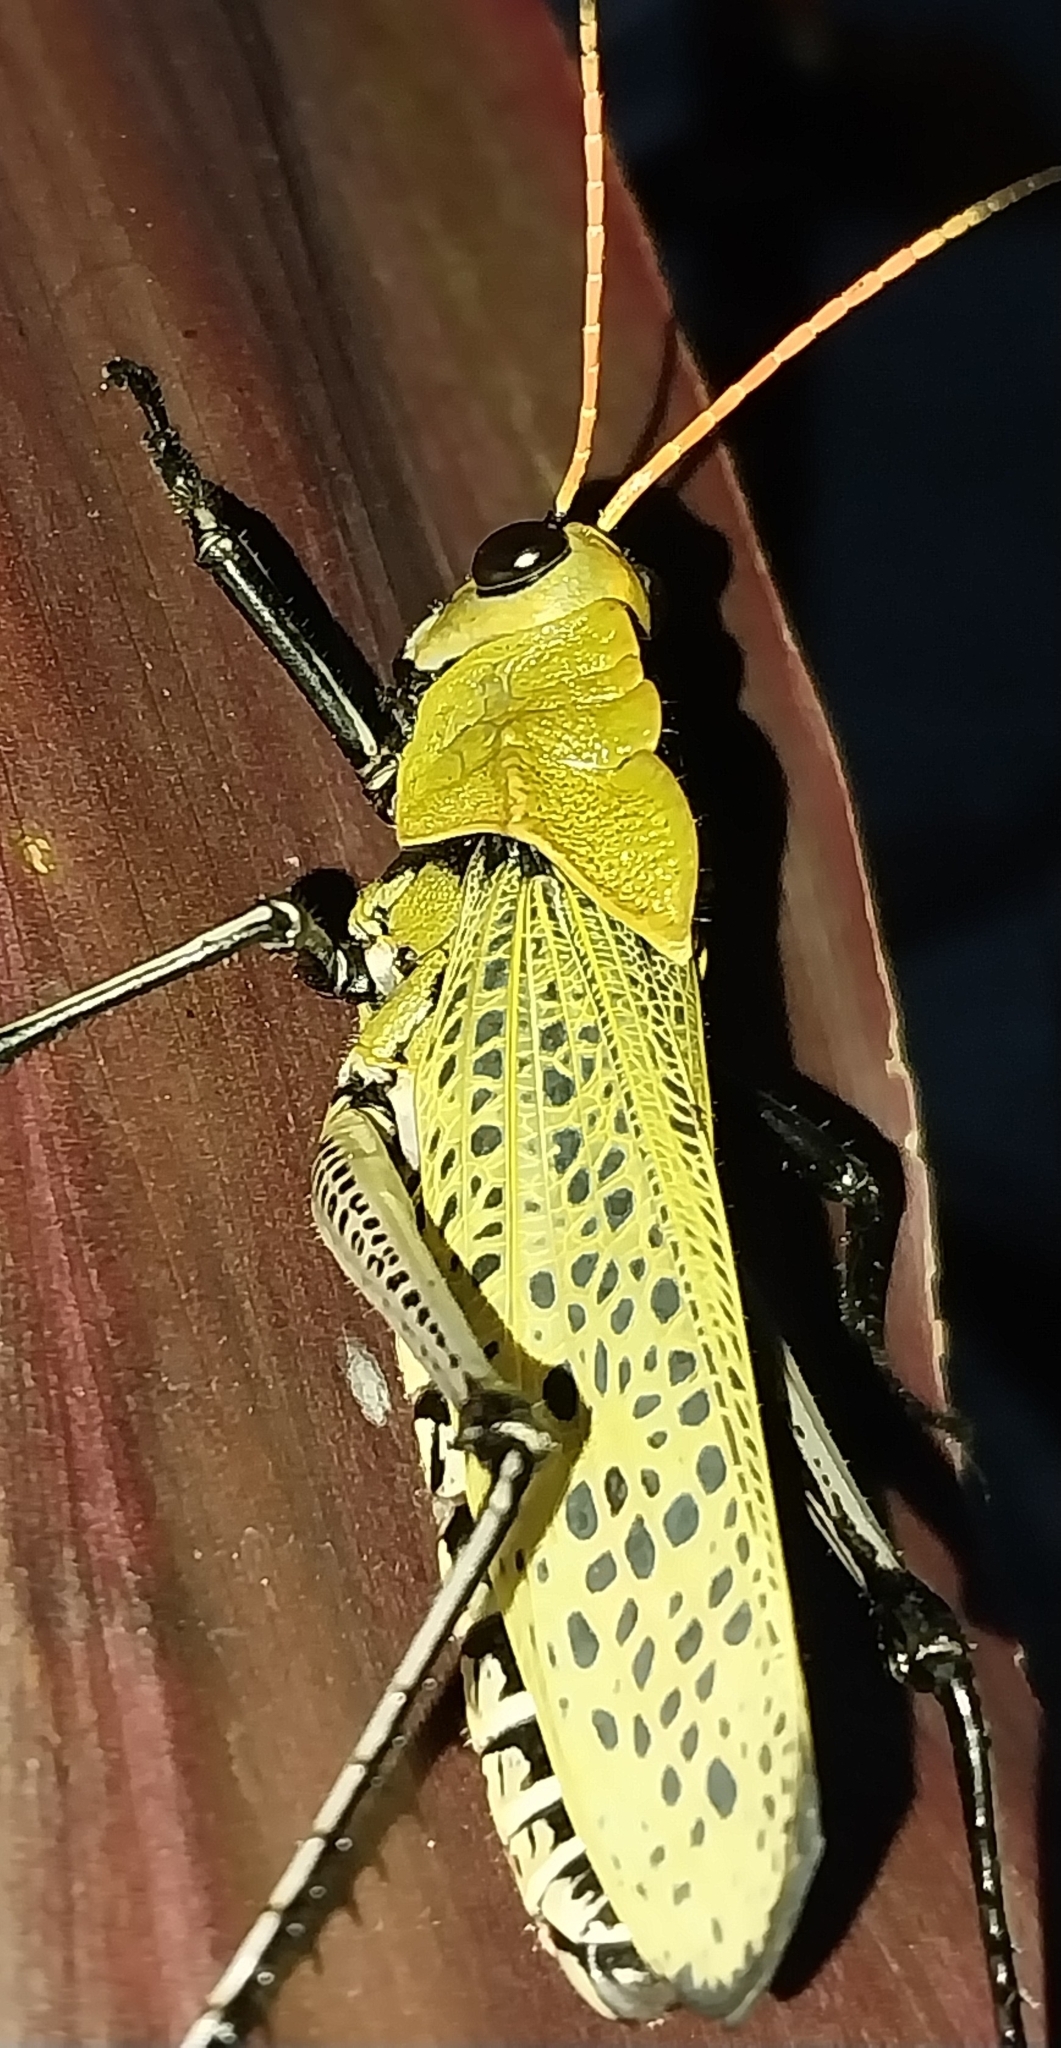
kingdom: Animalia
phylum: Arthropoda
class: Insecta
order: Orthoptera
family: Romaleidae
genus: Romalea
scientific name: Romalea
